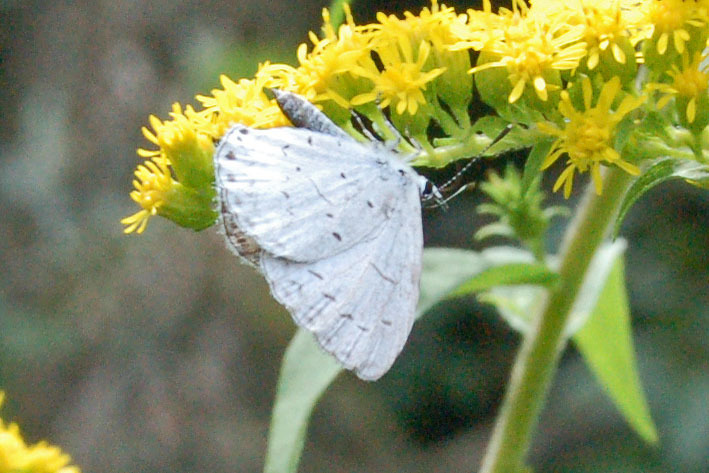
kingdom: Animalia
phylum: Arthropoda
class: Insecta
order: Lepidoptera
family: Lycaenidae
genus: Cyaniris
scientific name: Cyaniris neglecta
